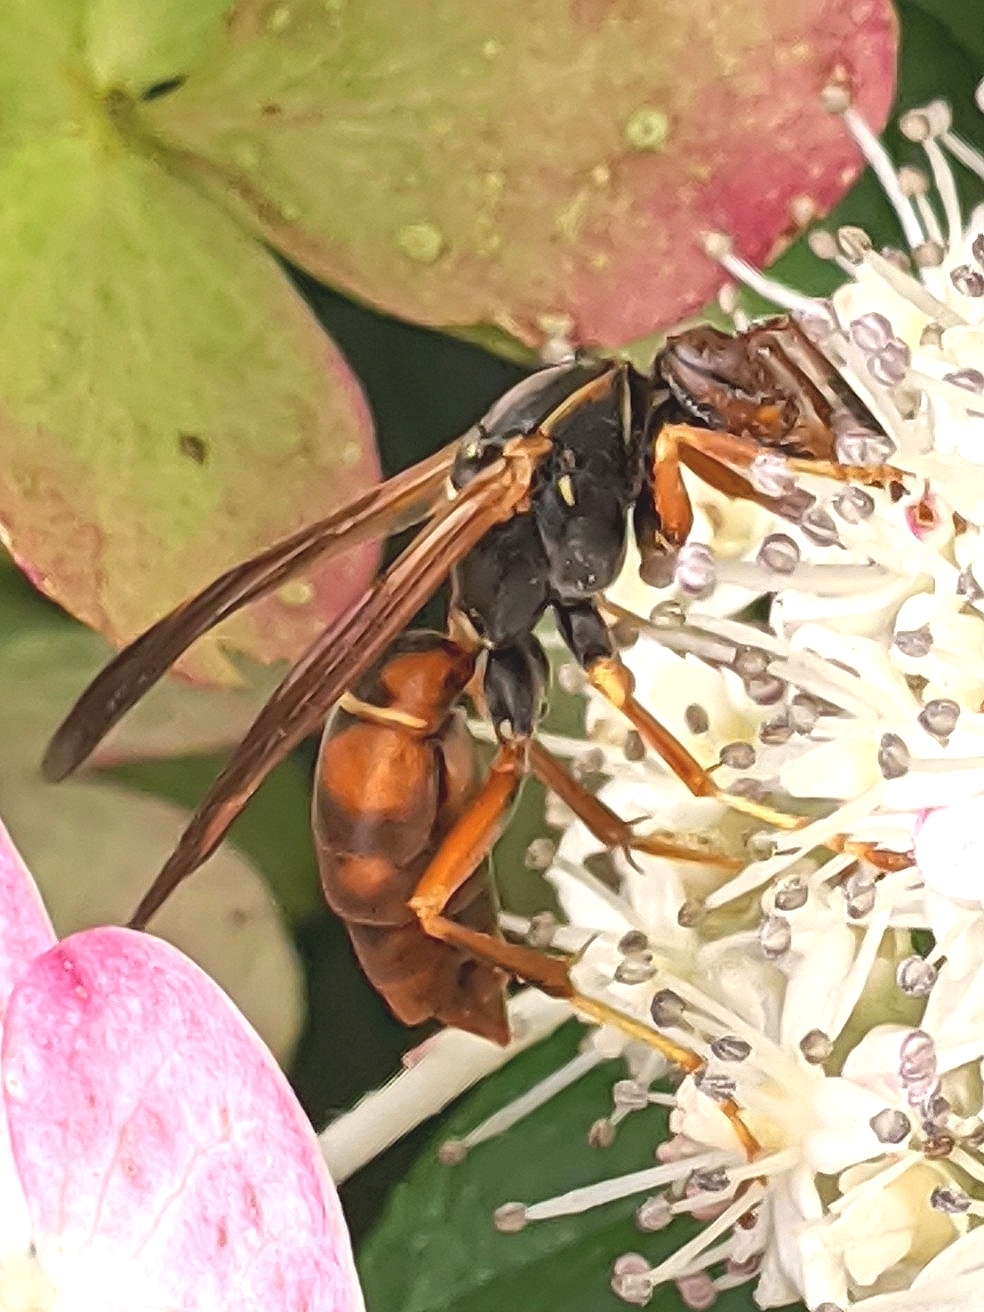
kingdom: Animalia
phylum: Arthropoda
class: Insecta
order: Hymenoptera
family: Eumenidae
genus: Polistes
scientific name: Polistes fuscatus
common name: Dark paper wasp
